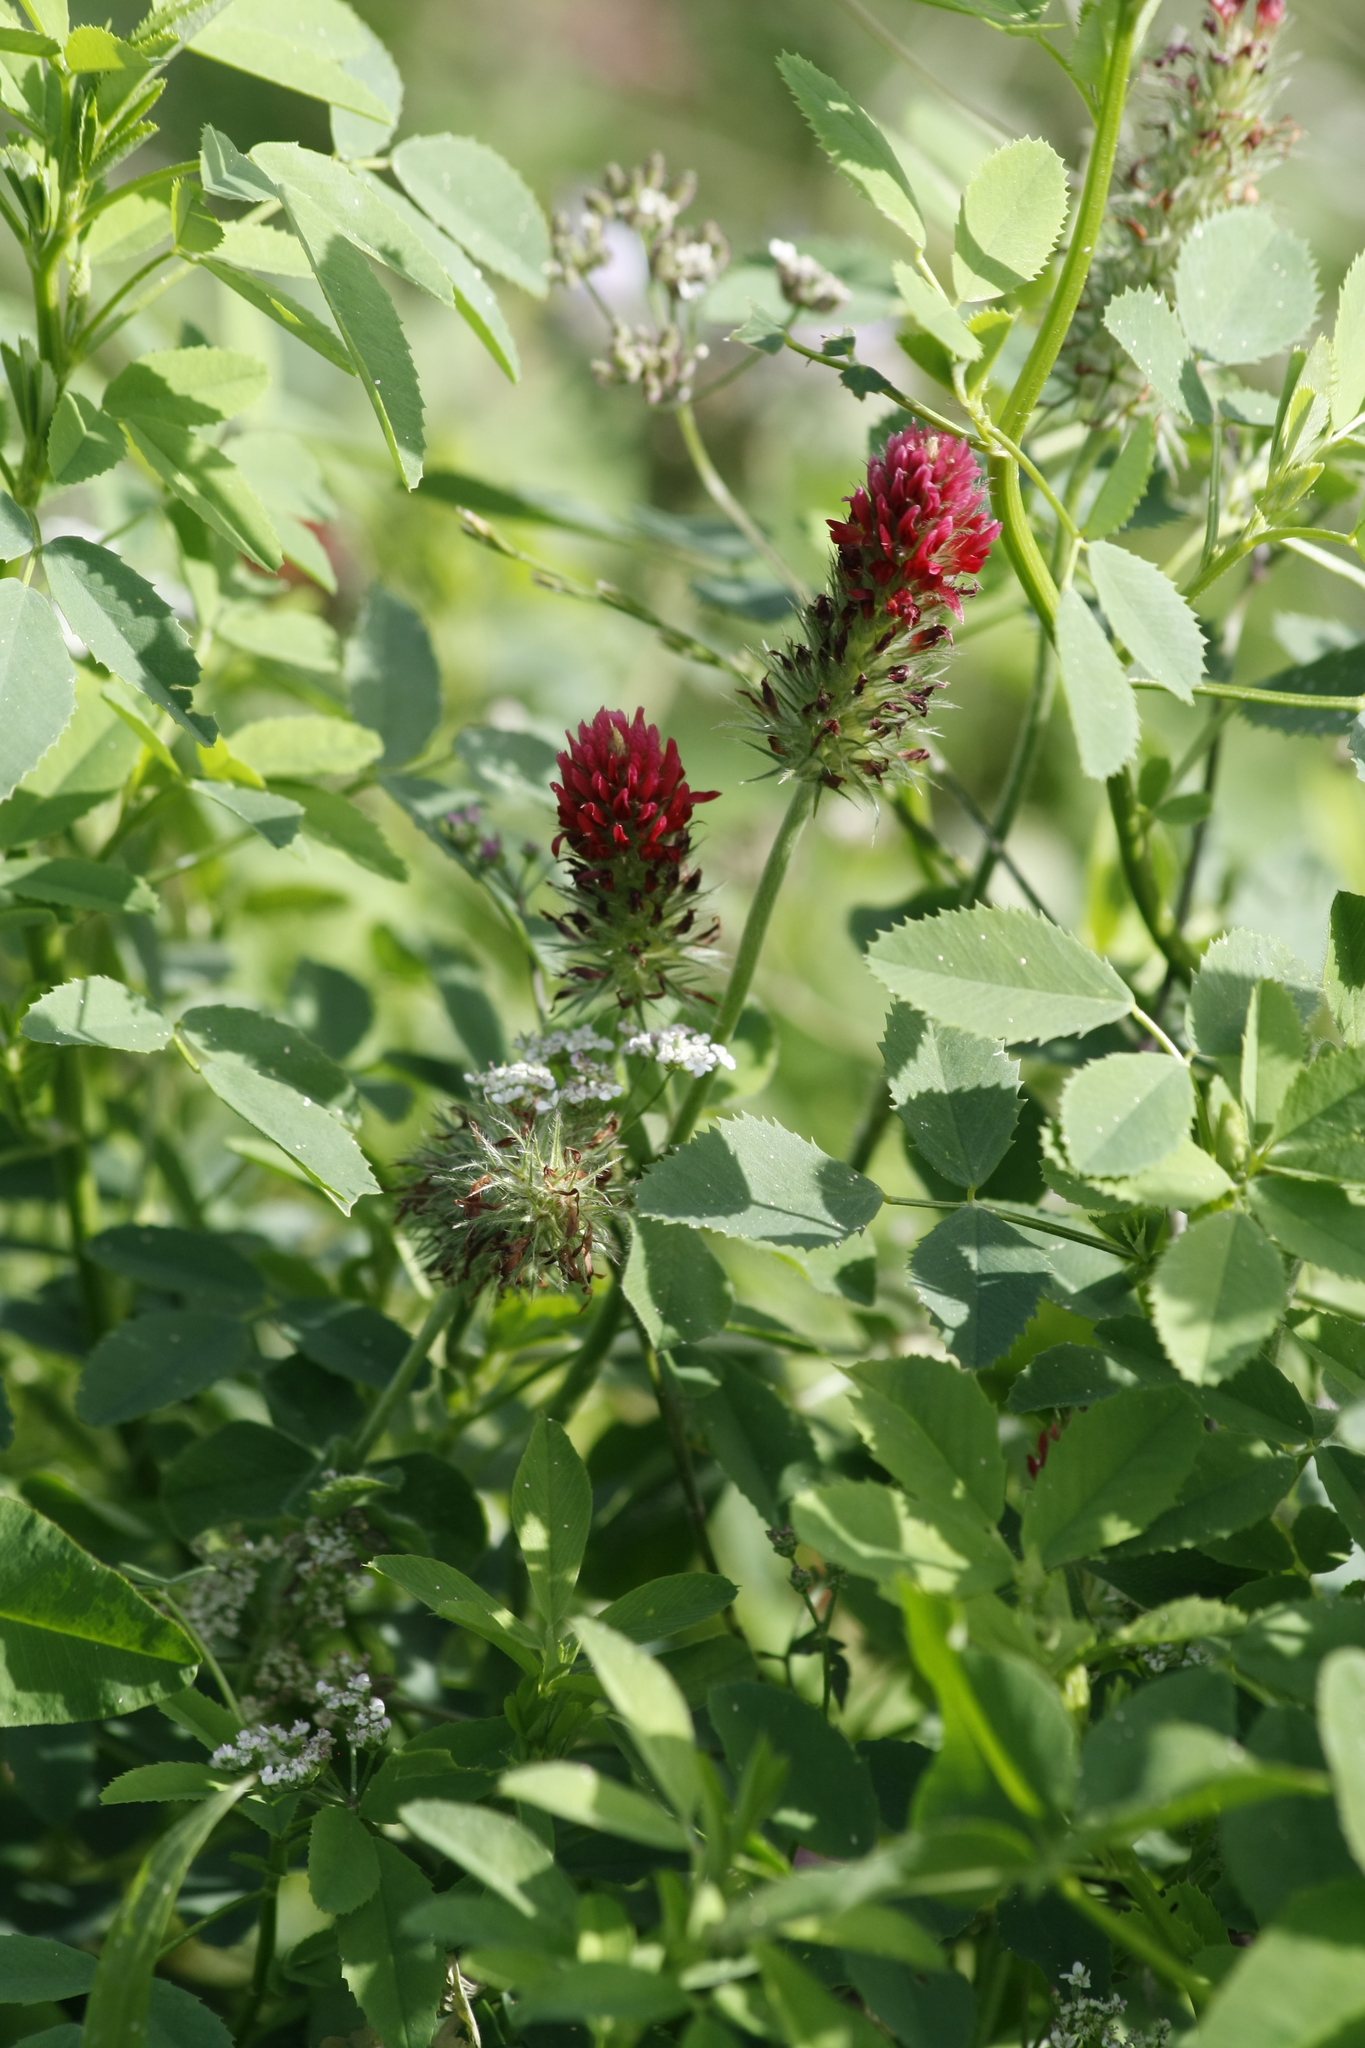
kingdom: Plantae
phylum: Tracheophyta
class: Magnoliopsida
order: Fabales
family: Fabaceae
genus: Trifolium
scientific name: Trifolium incarnatum
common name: Crimson clover
